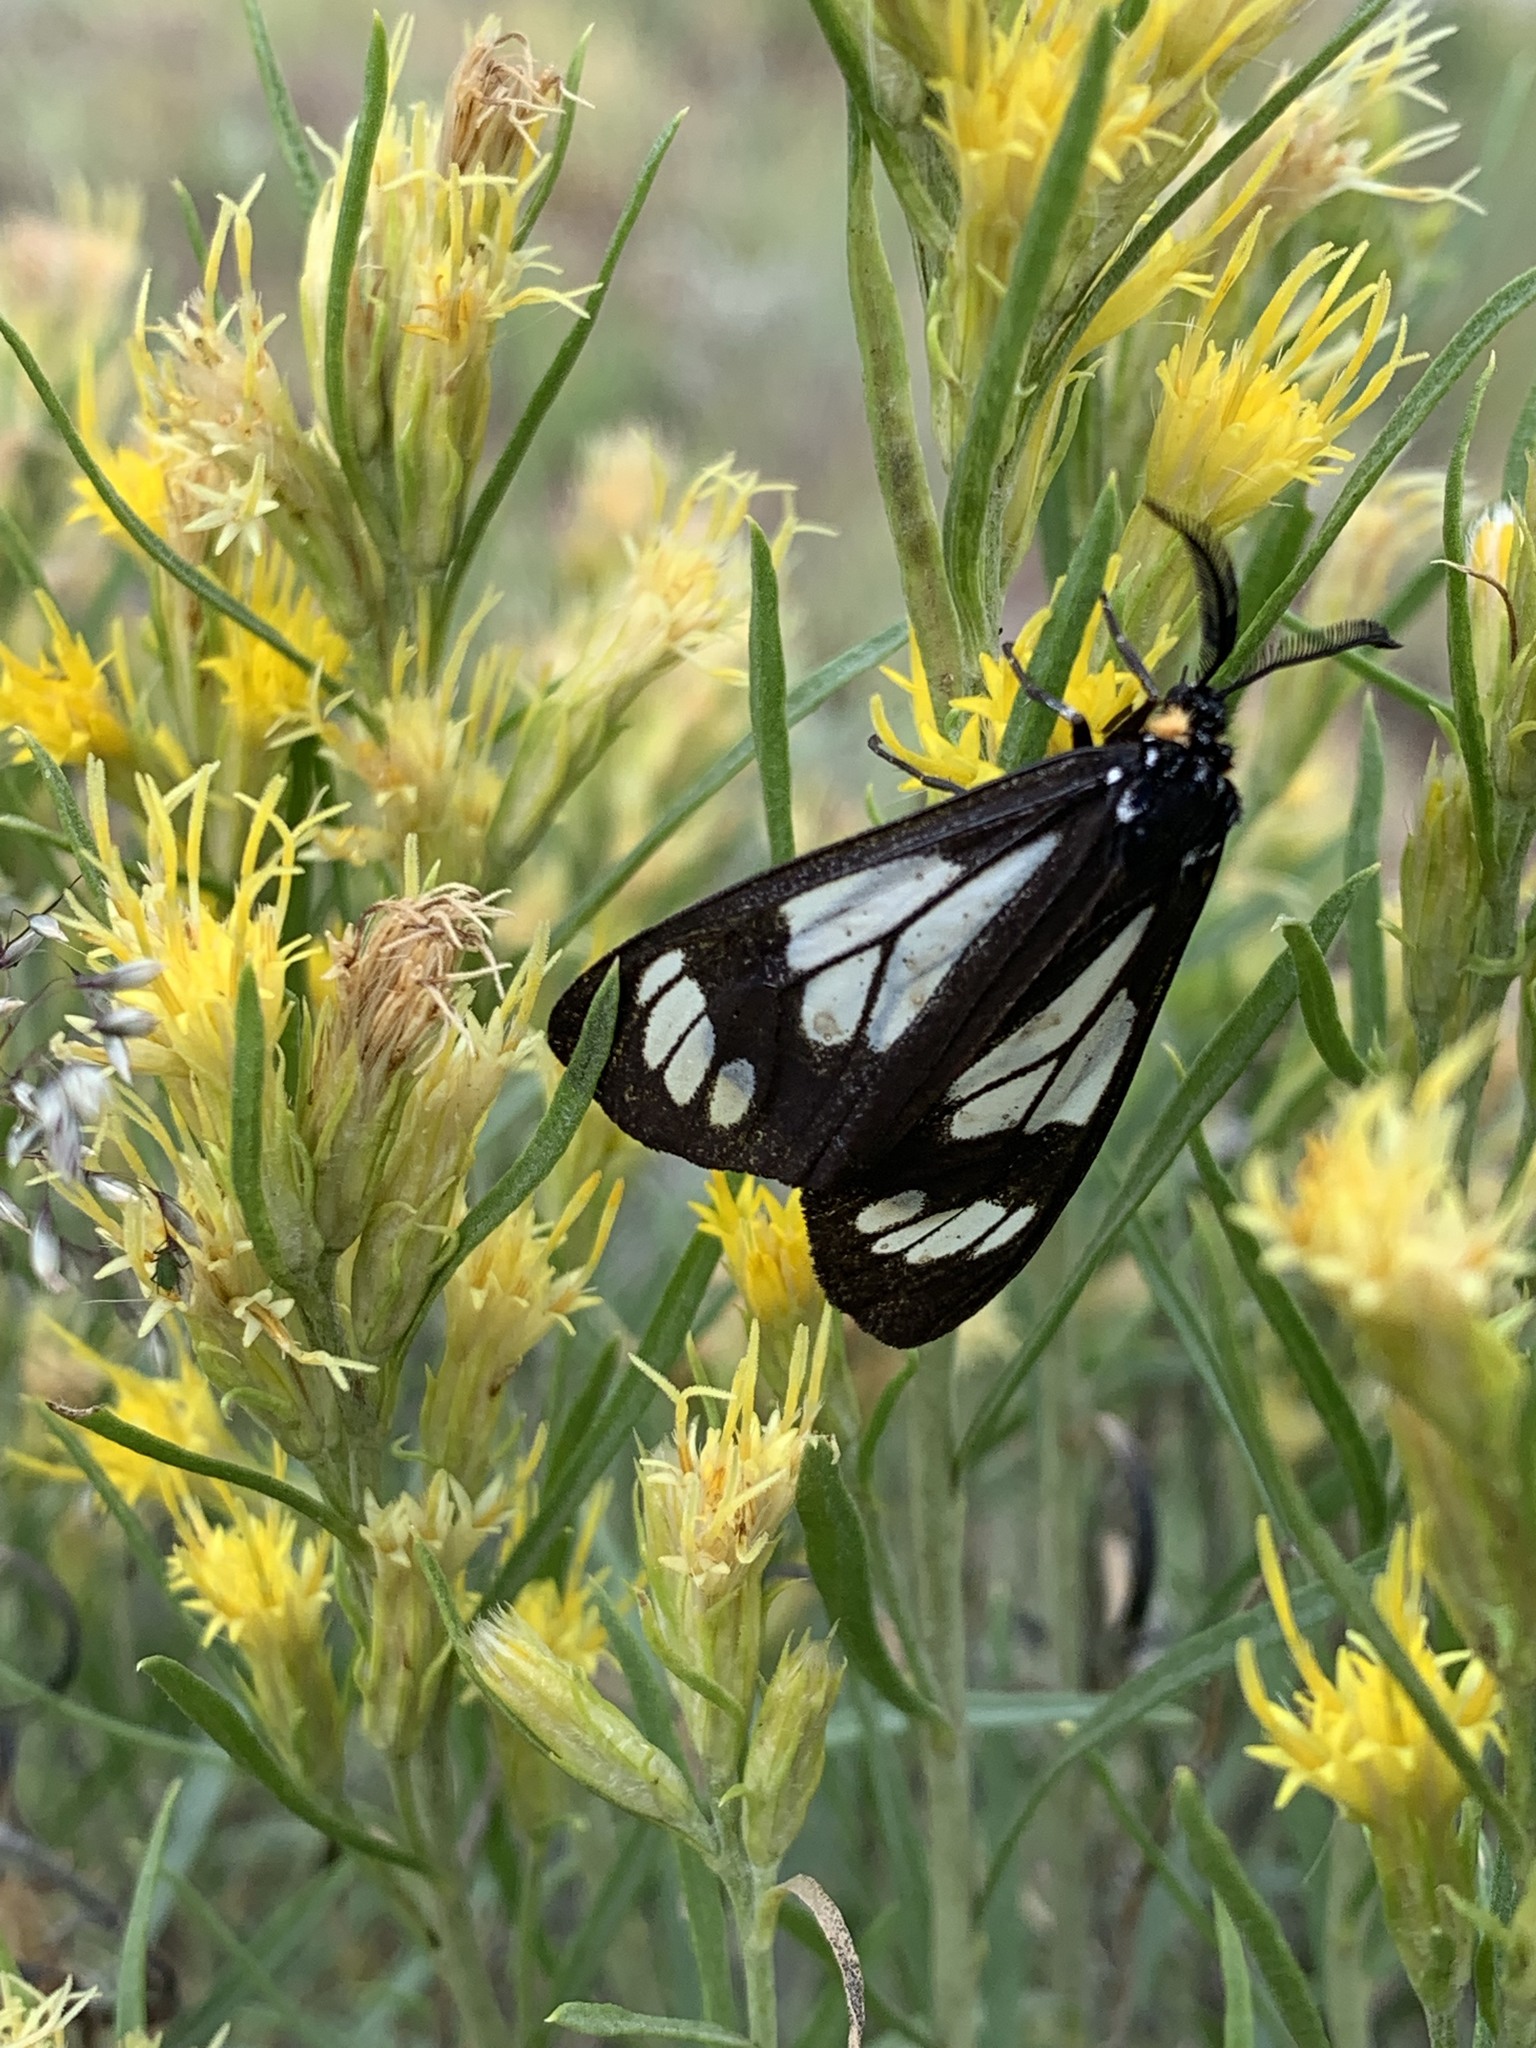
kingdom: Animalia
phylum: Arthropoda
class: Insecta
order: Lepidoptera
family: Erebidae
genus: Gnophaela
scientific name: Gnophaela vermiculata
